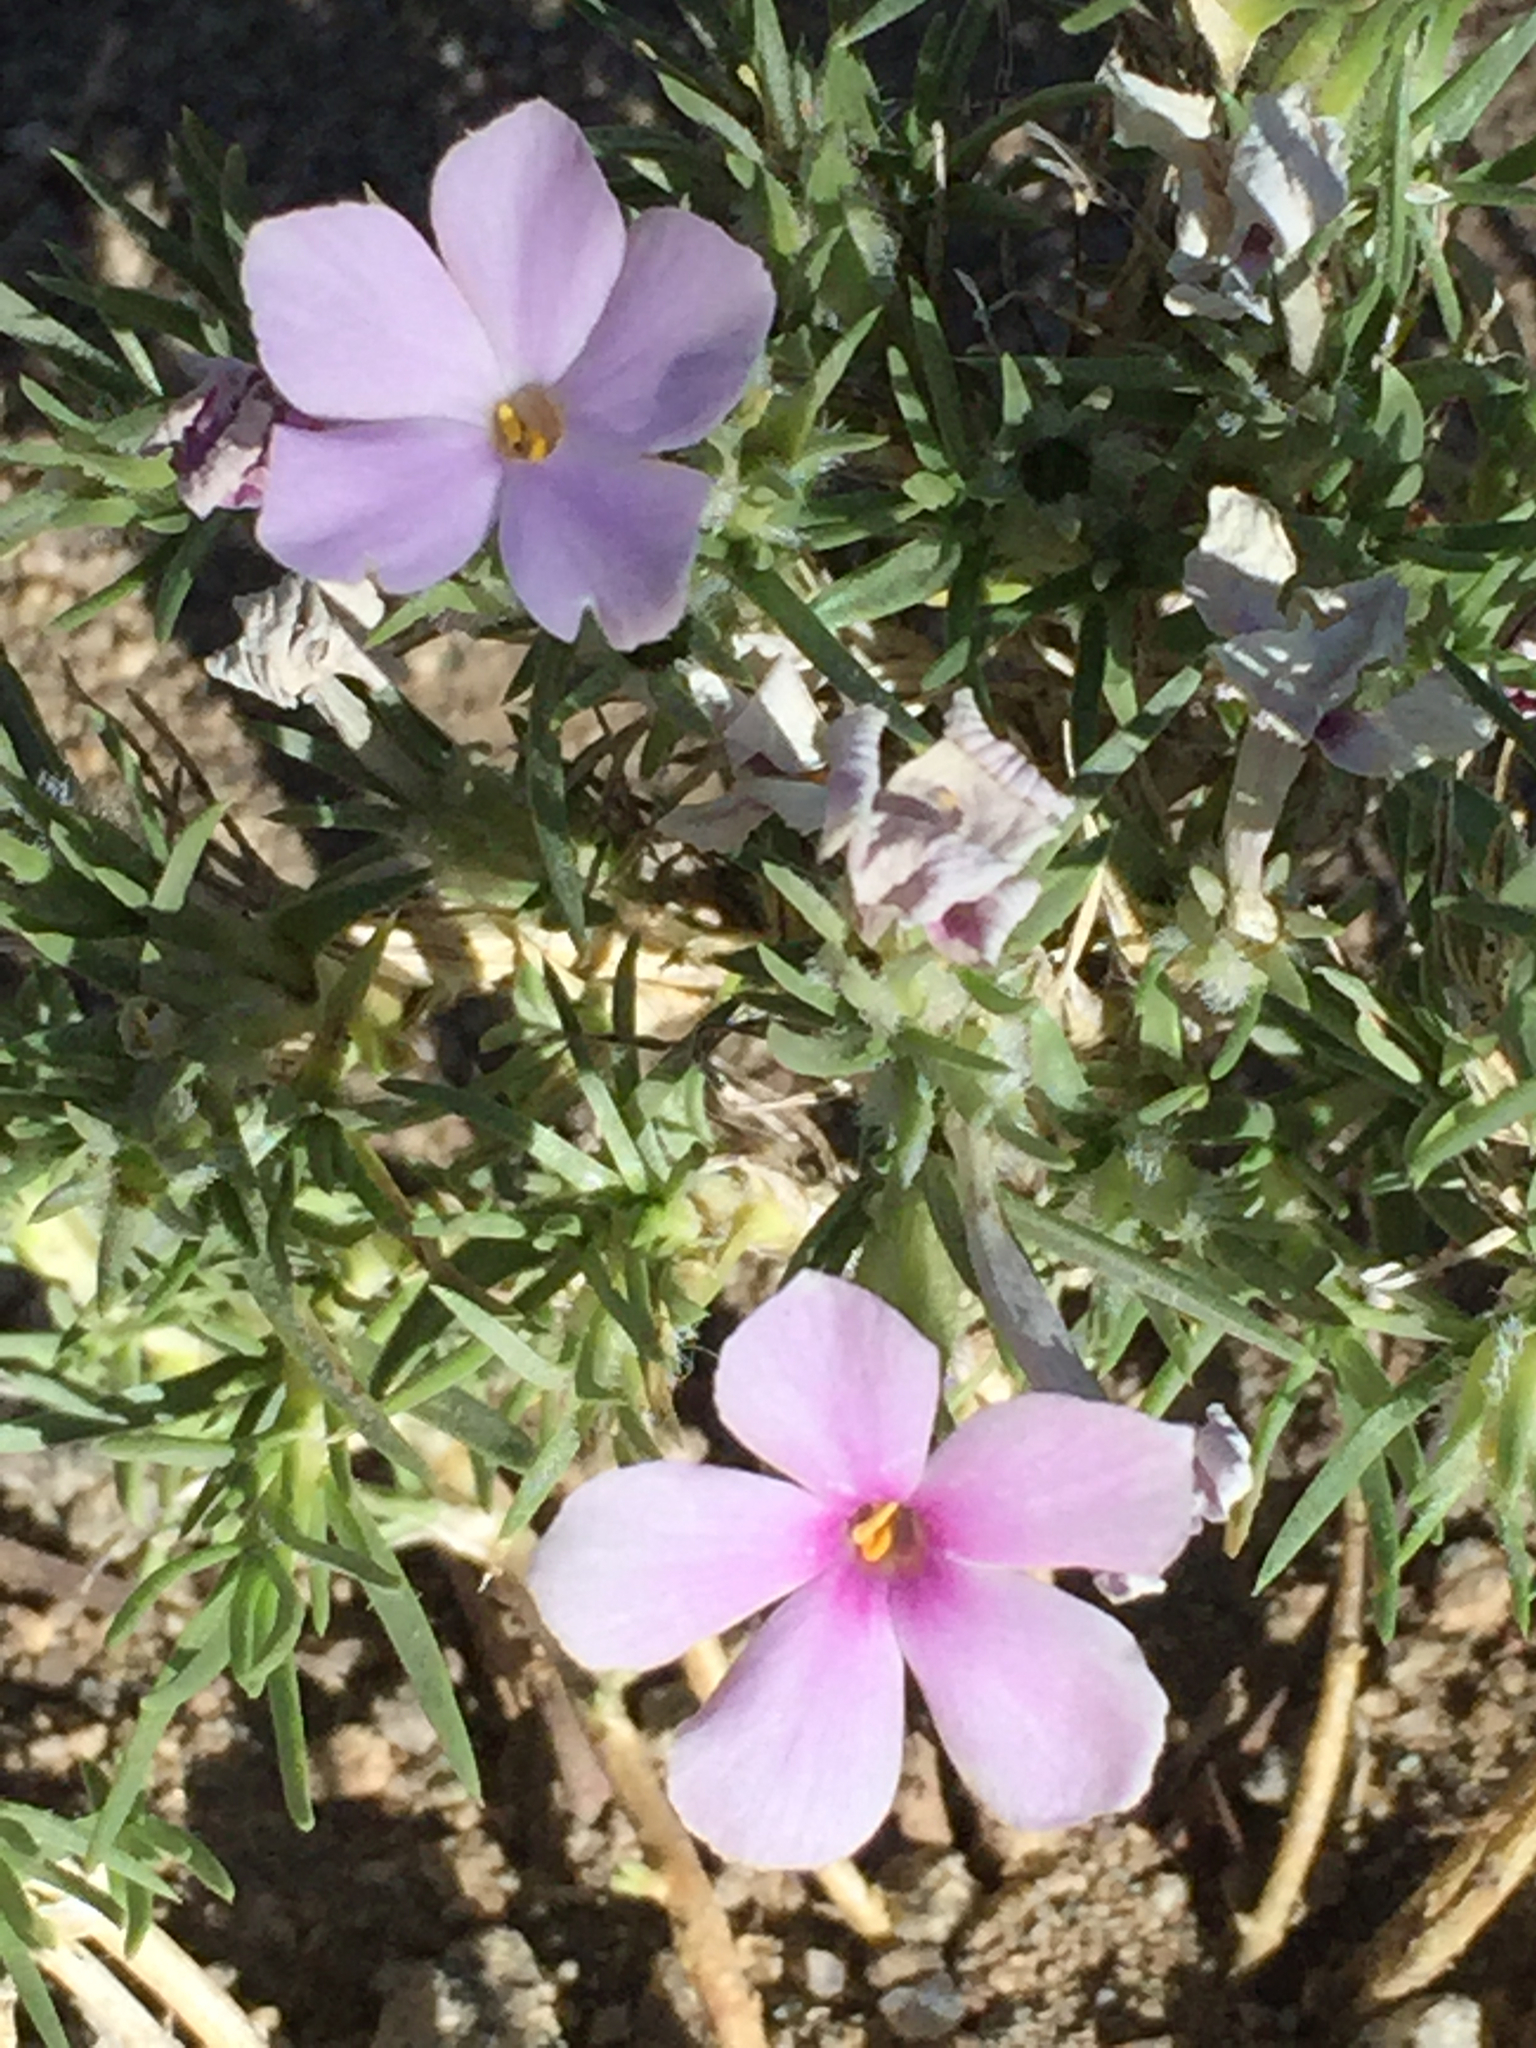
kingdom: Plantae
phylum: Tracheophyta
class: Magnoliopsida
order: Ericales
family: Polemoniaceae
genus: Phlox
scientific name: Phlox diffusa
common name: Mat phlox
